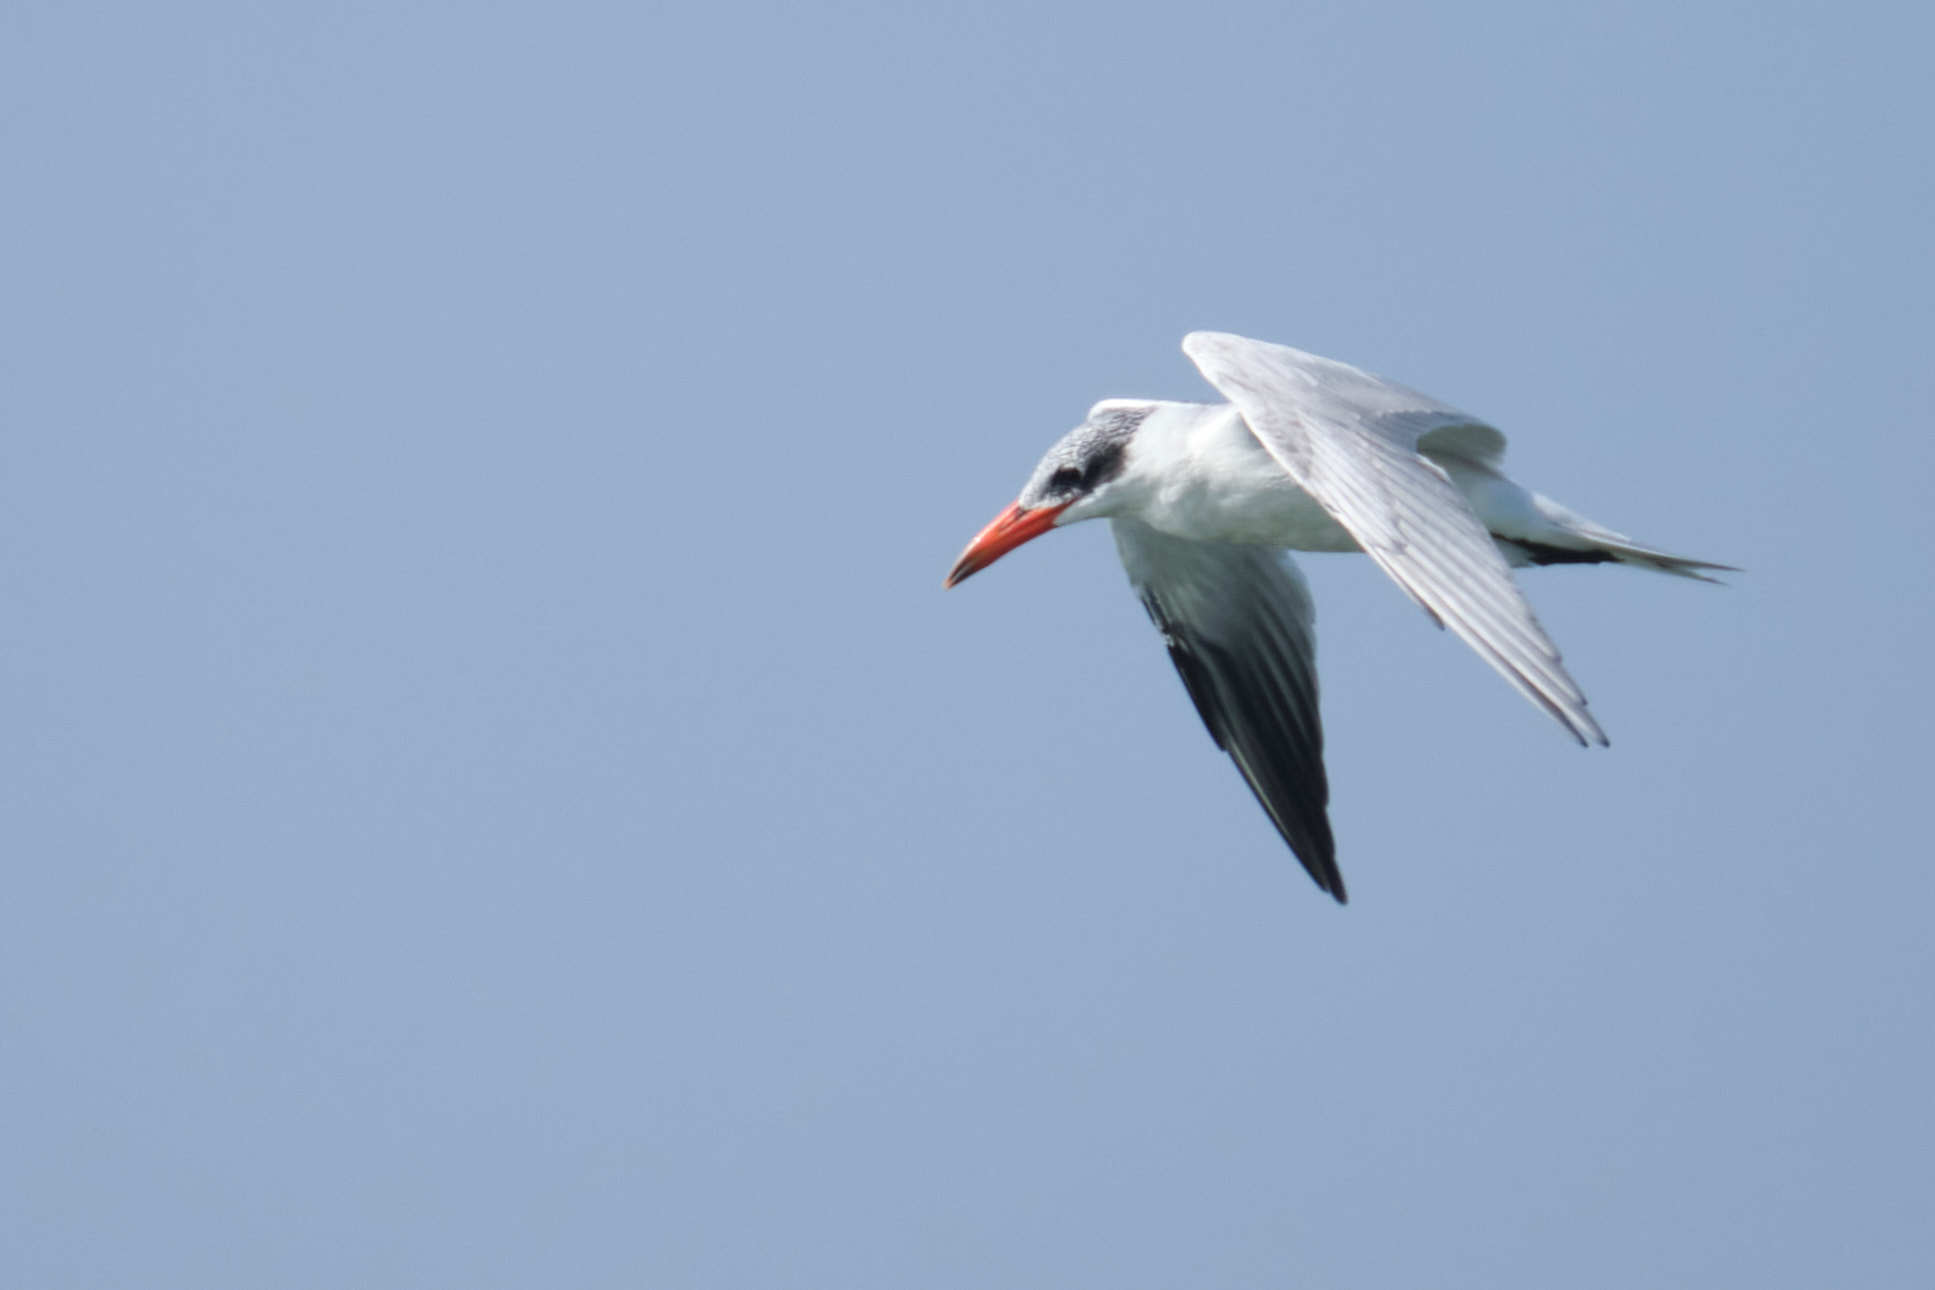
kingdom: Animalia
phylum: Chordata
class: Aves
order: Charadriiformes
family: Laridae
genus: Hydroprogne
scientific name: Hydroprogne caspia
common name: Caspian tern
